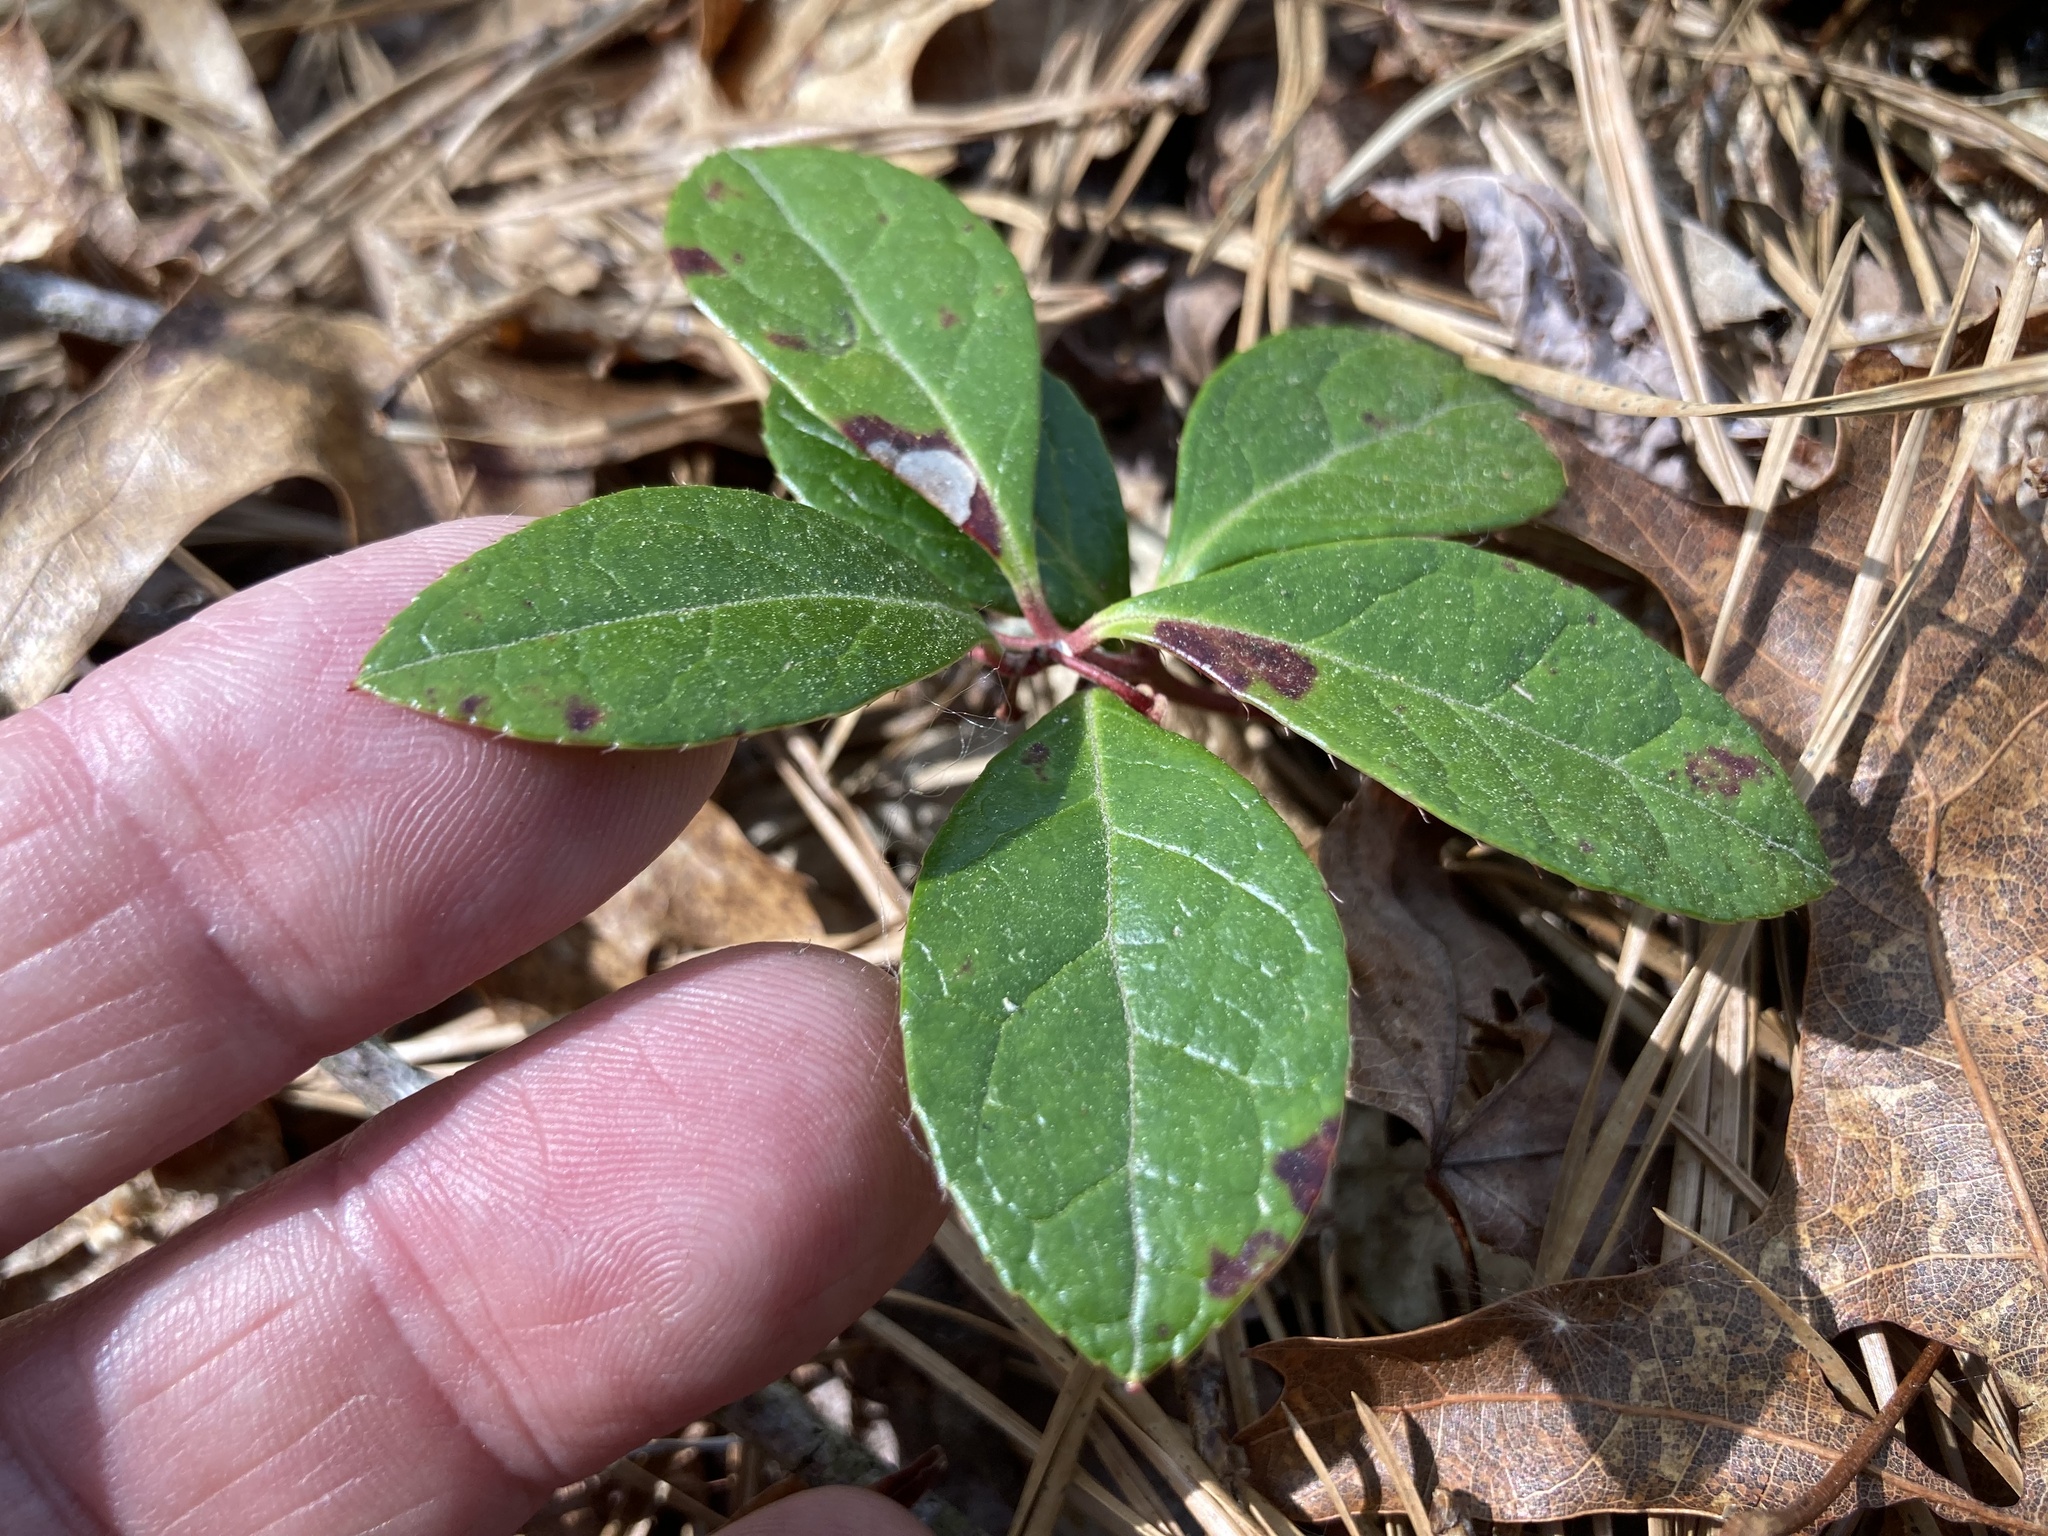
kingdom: Plantae
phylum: Tracheophyta
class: Magnoliopsida
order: Ericales
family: Ericaceae
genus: Gaultheria
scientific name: Gaultheria procumbens
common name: Checkerberry
